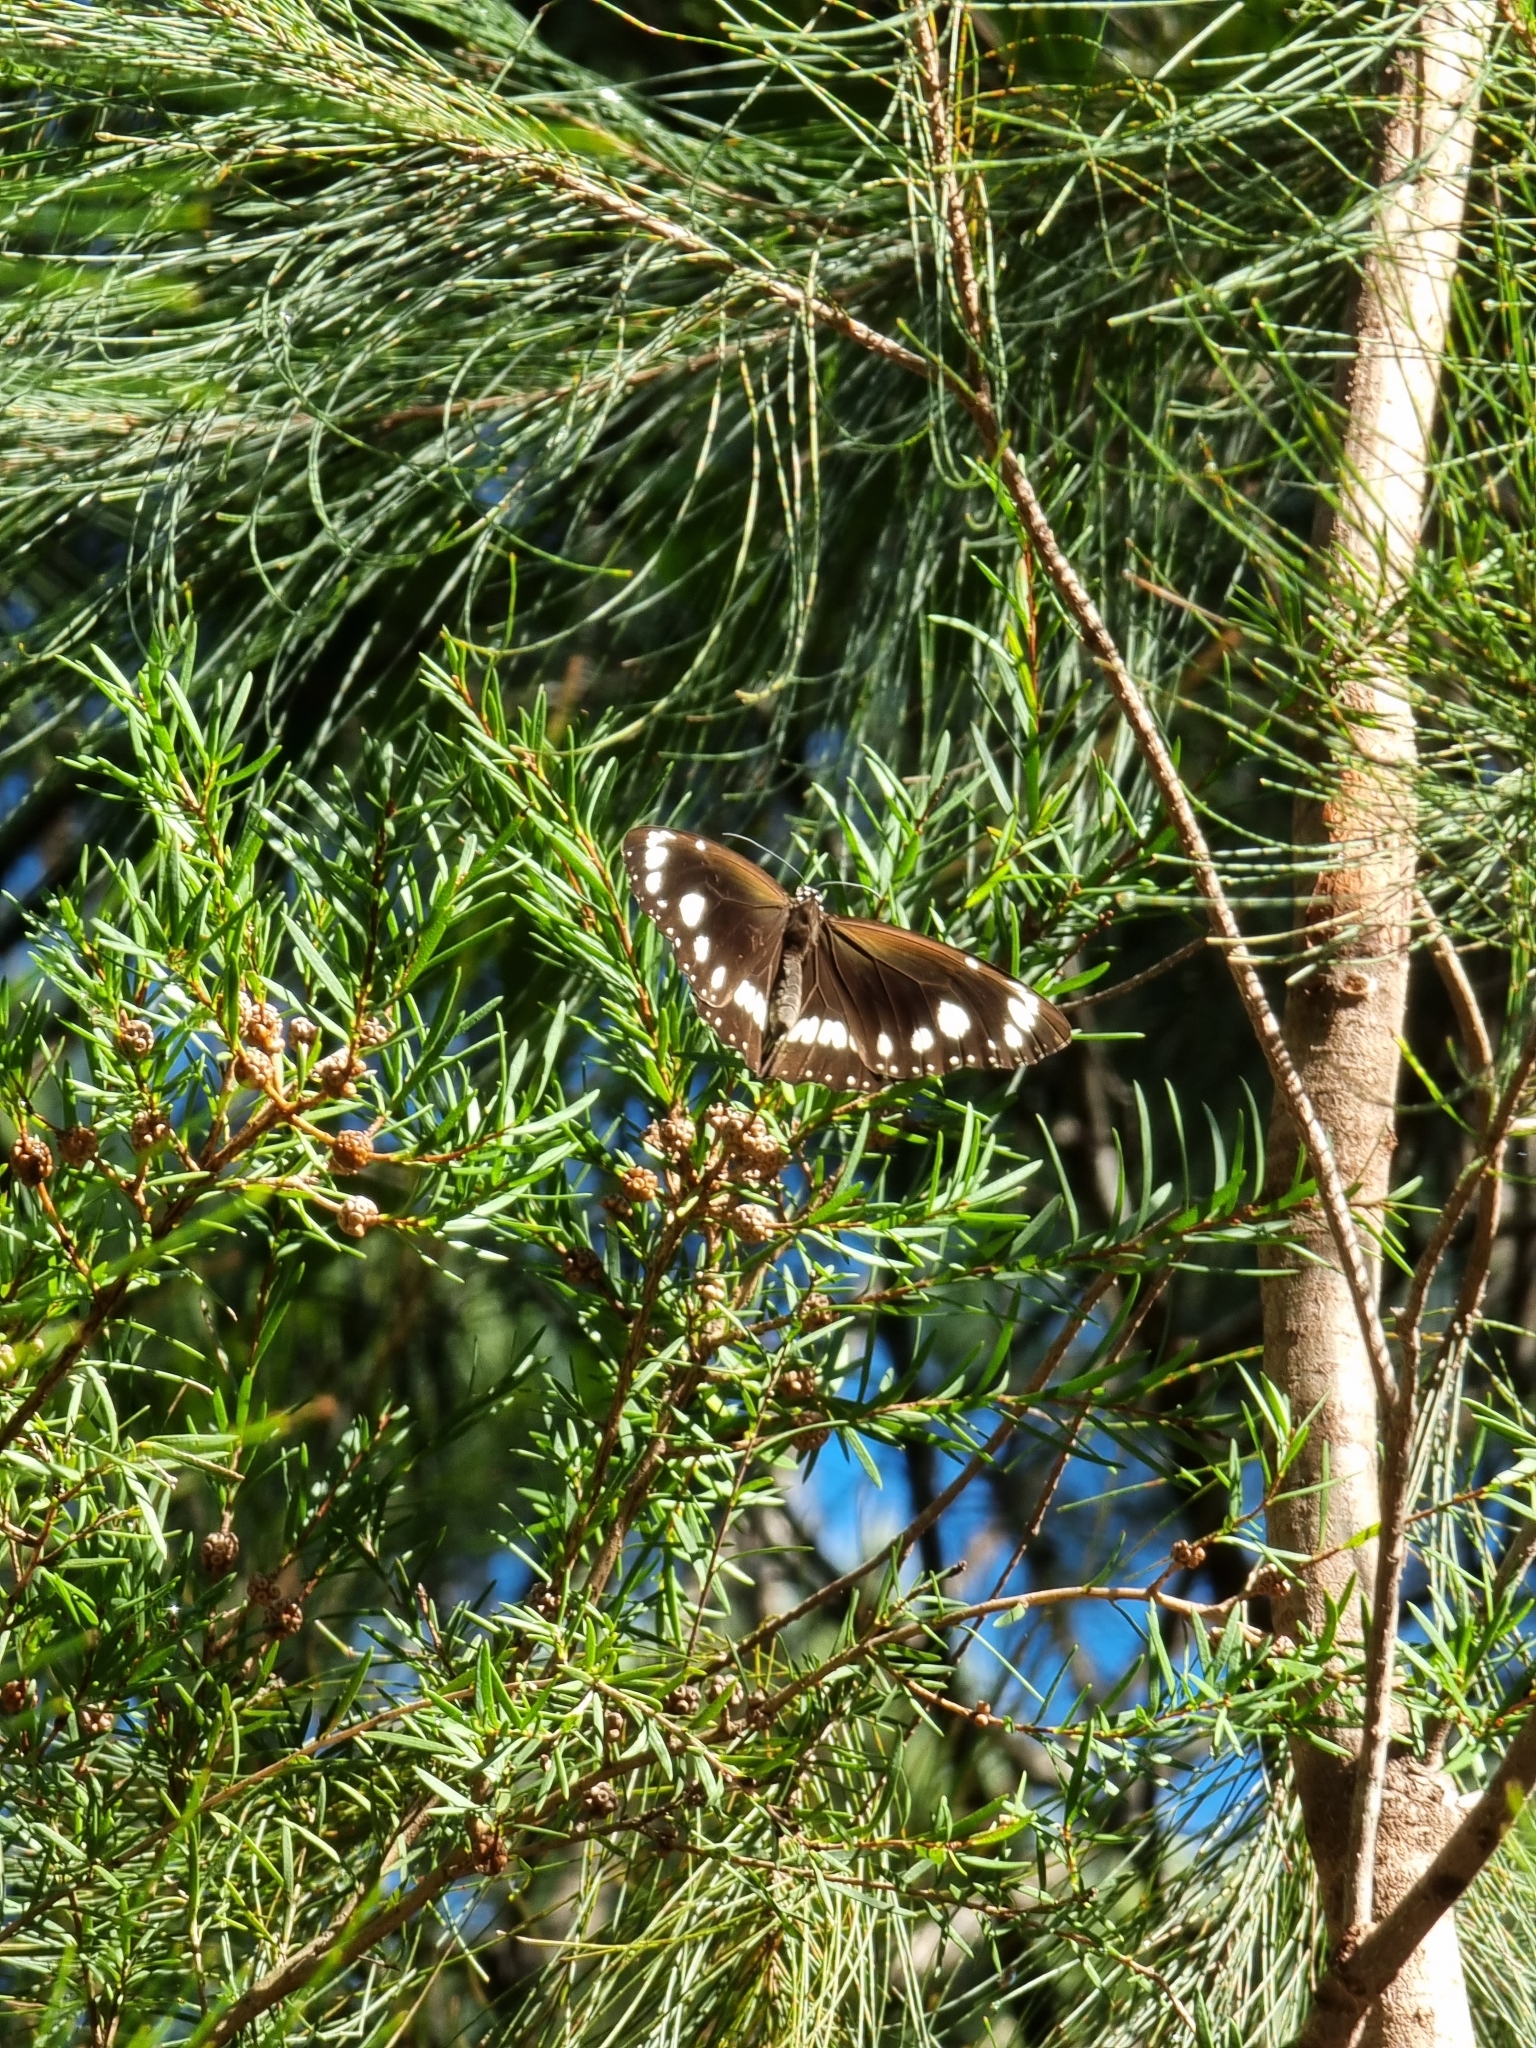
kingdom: Animalia
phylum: Arthropoda
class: Insecta
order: Lepidoptera
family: Nymphalidae
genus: Euploea
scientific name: Euploea core
